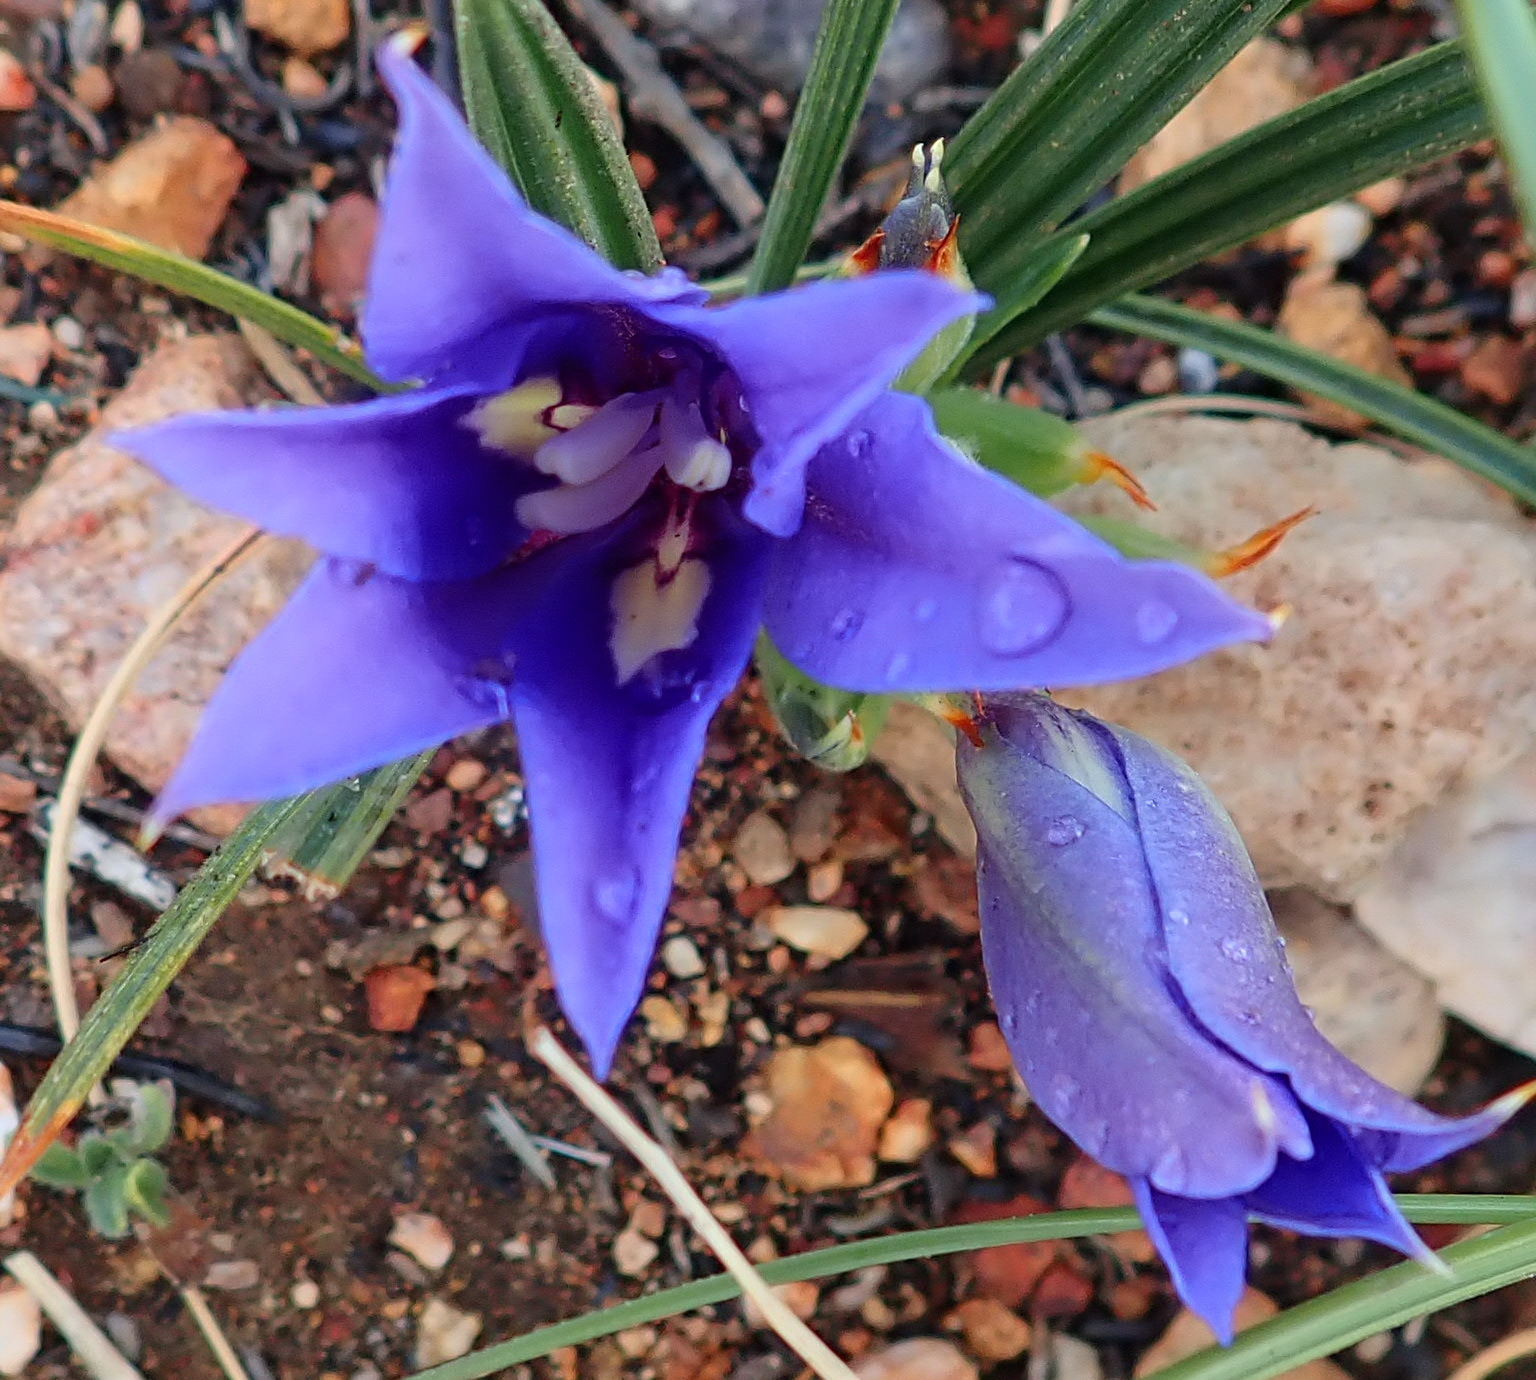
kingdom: Plantae
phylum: Tracheophyta
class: Liliopsida
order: Asparagales
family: Iridaceae
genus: Babiana
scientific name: Babiana sambucina
